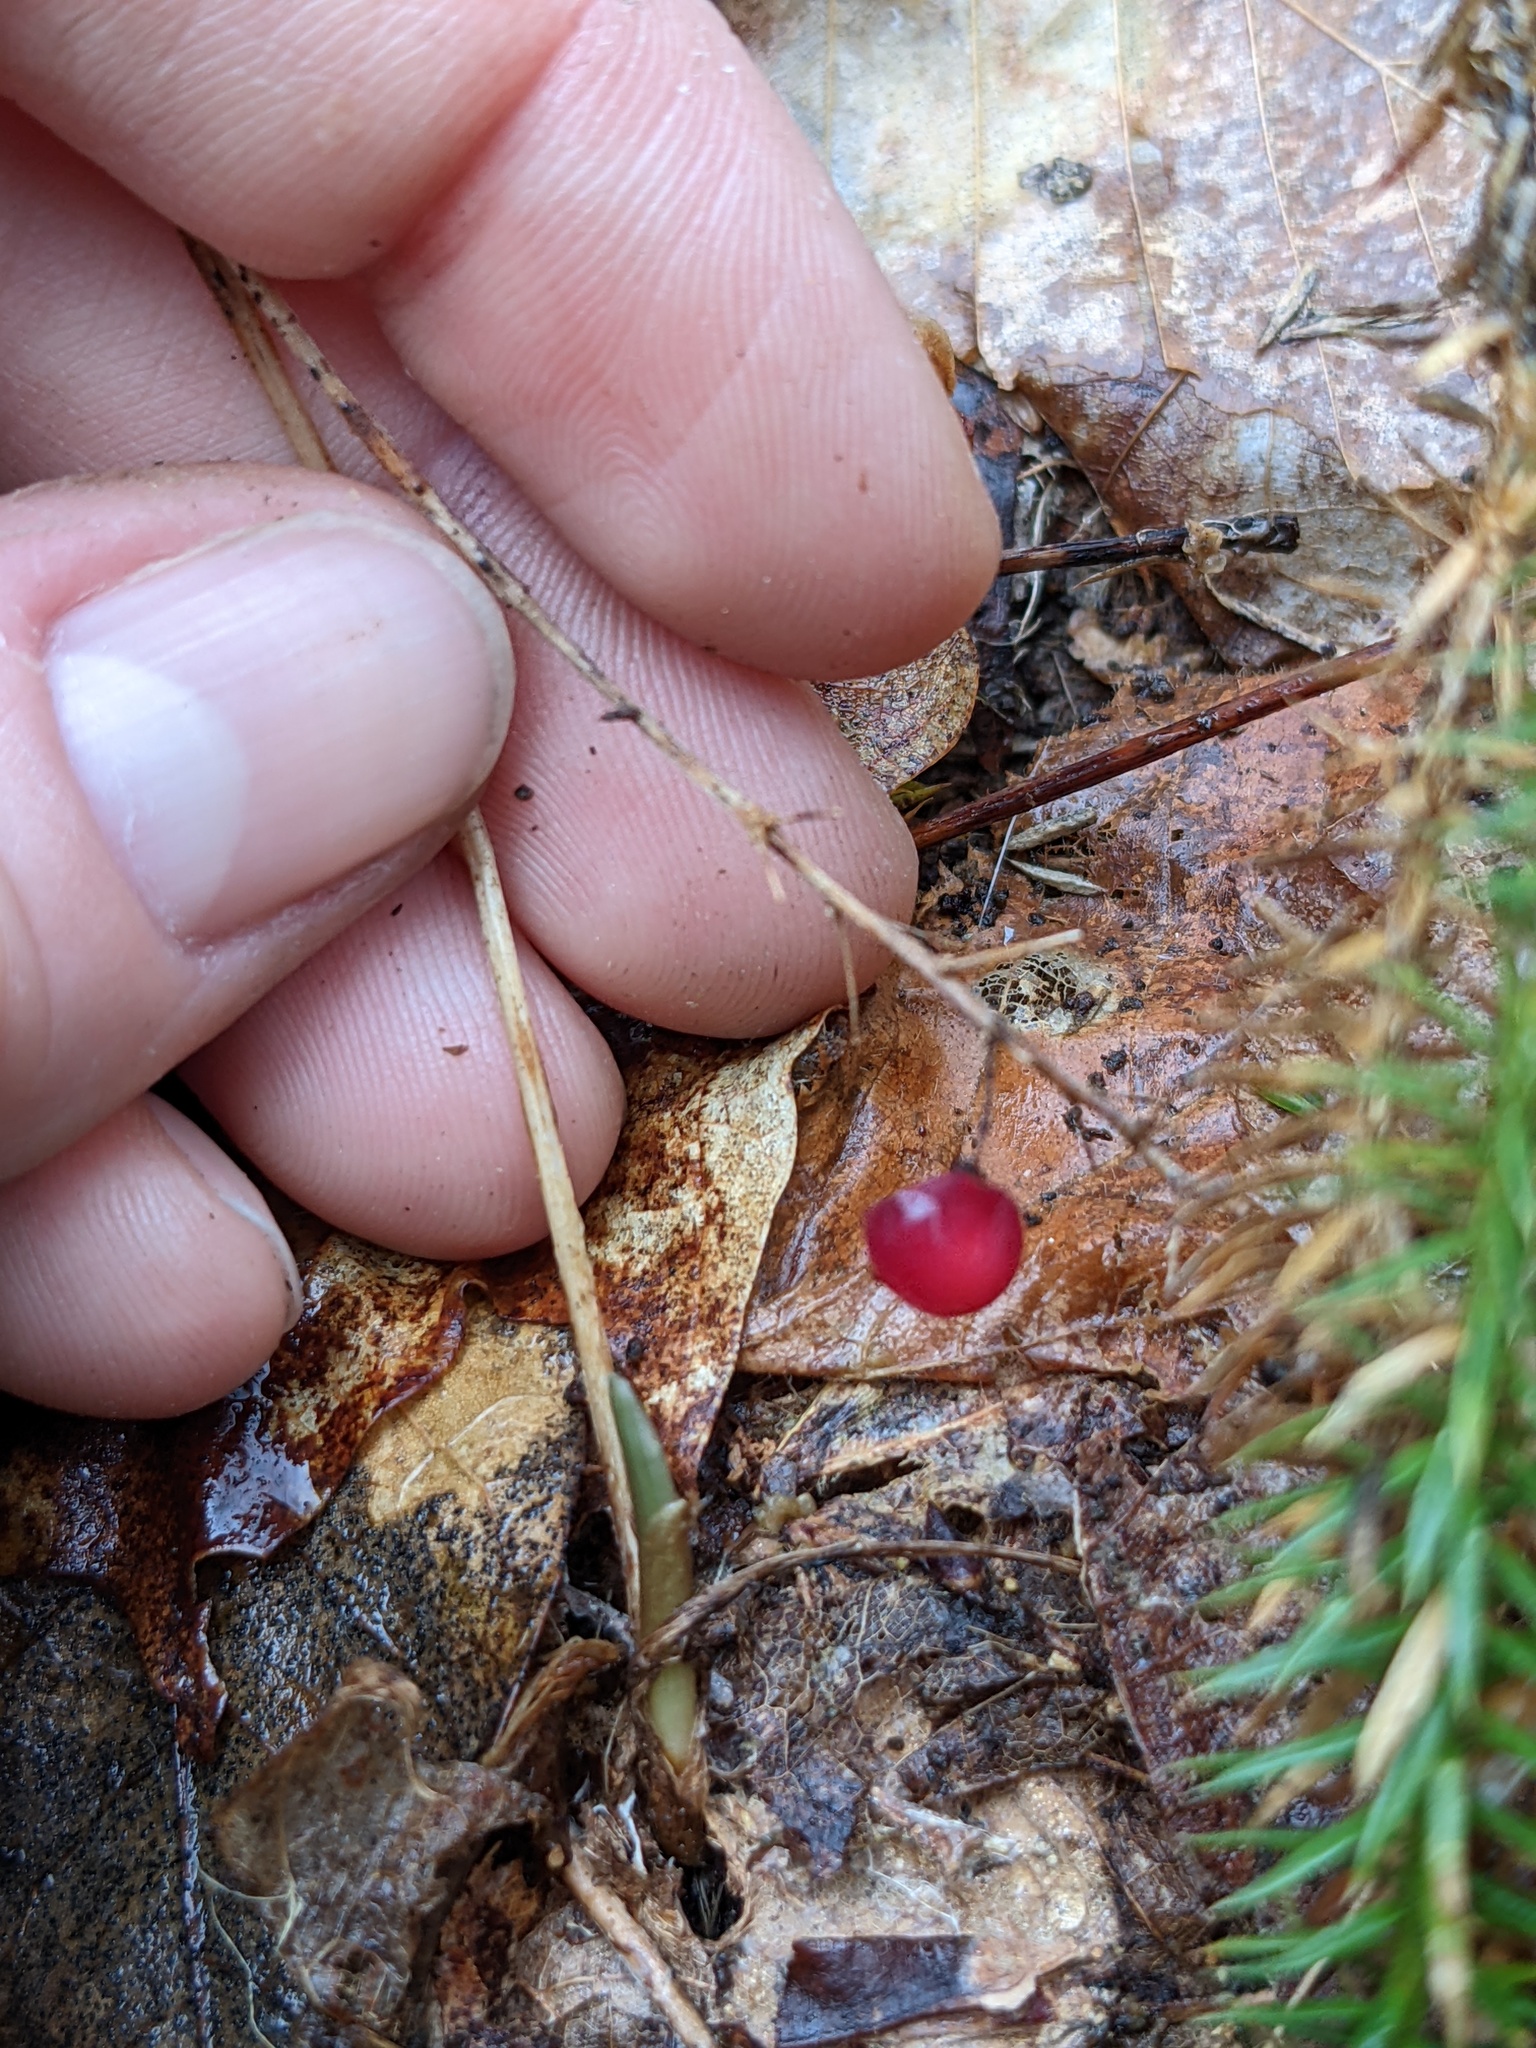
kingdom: Plantae
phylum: Tracheophyta
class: Liliopsida
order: Asparagales
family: Asparagaceae
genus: Maianthemum
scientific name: Maianthemum canadense
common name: False lily-of-the-valley
